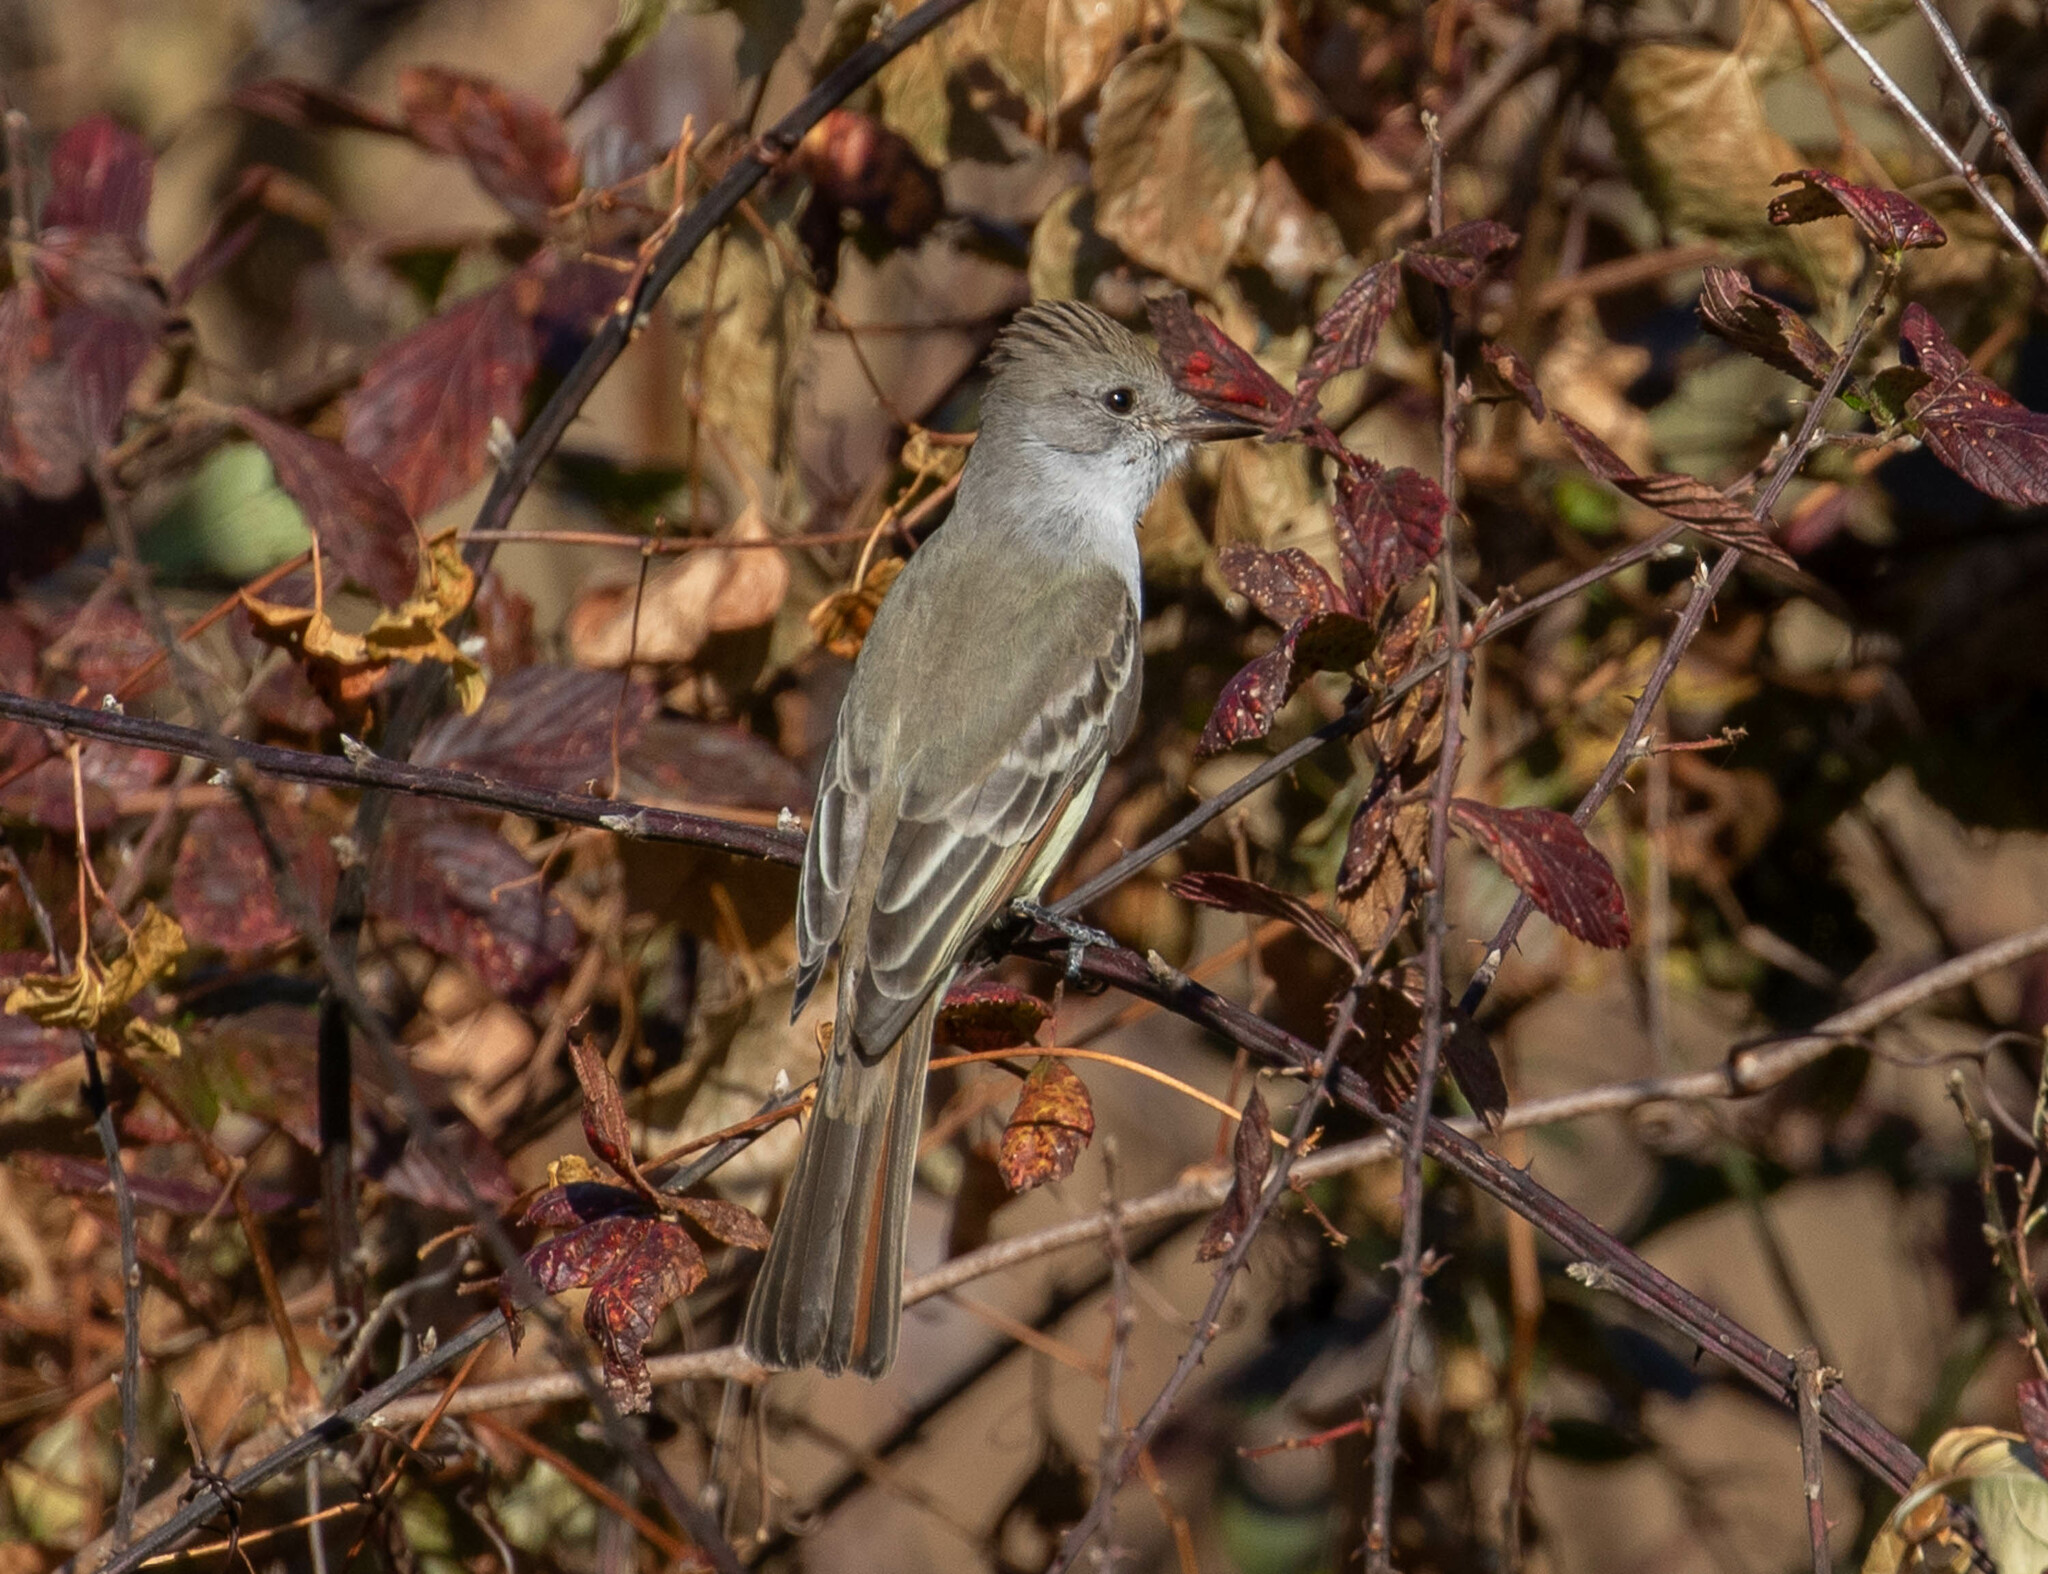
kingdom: Animalia
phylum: Chordata
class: Aves
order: Passeriformes
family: Tyrannidae
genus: Myiarchus
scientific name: Myiarchus cinerascens
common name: Ash-throated flycatcher
